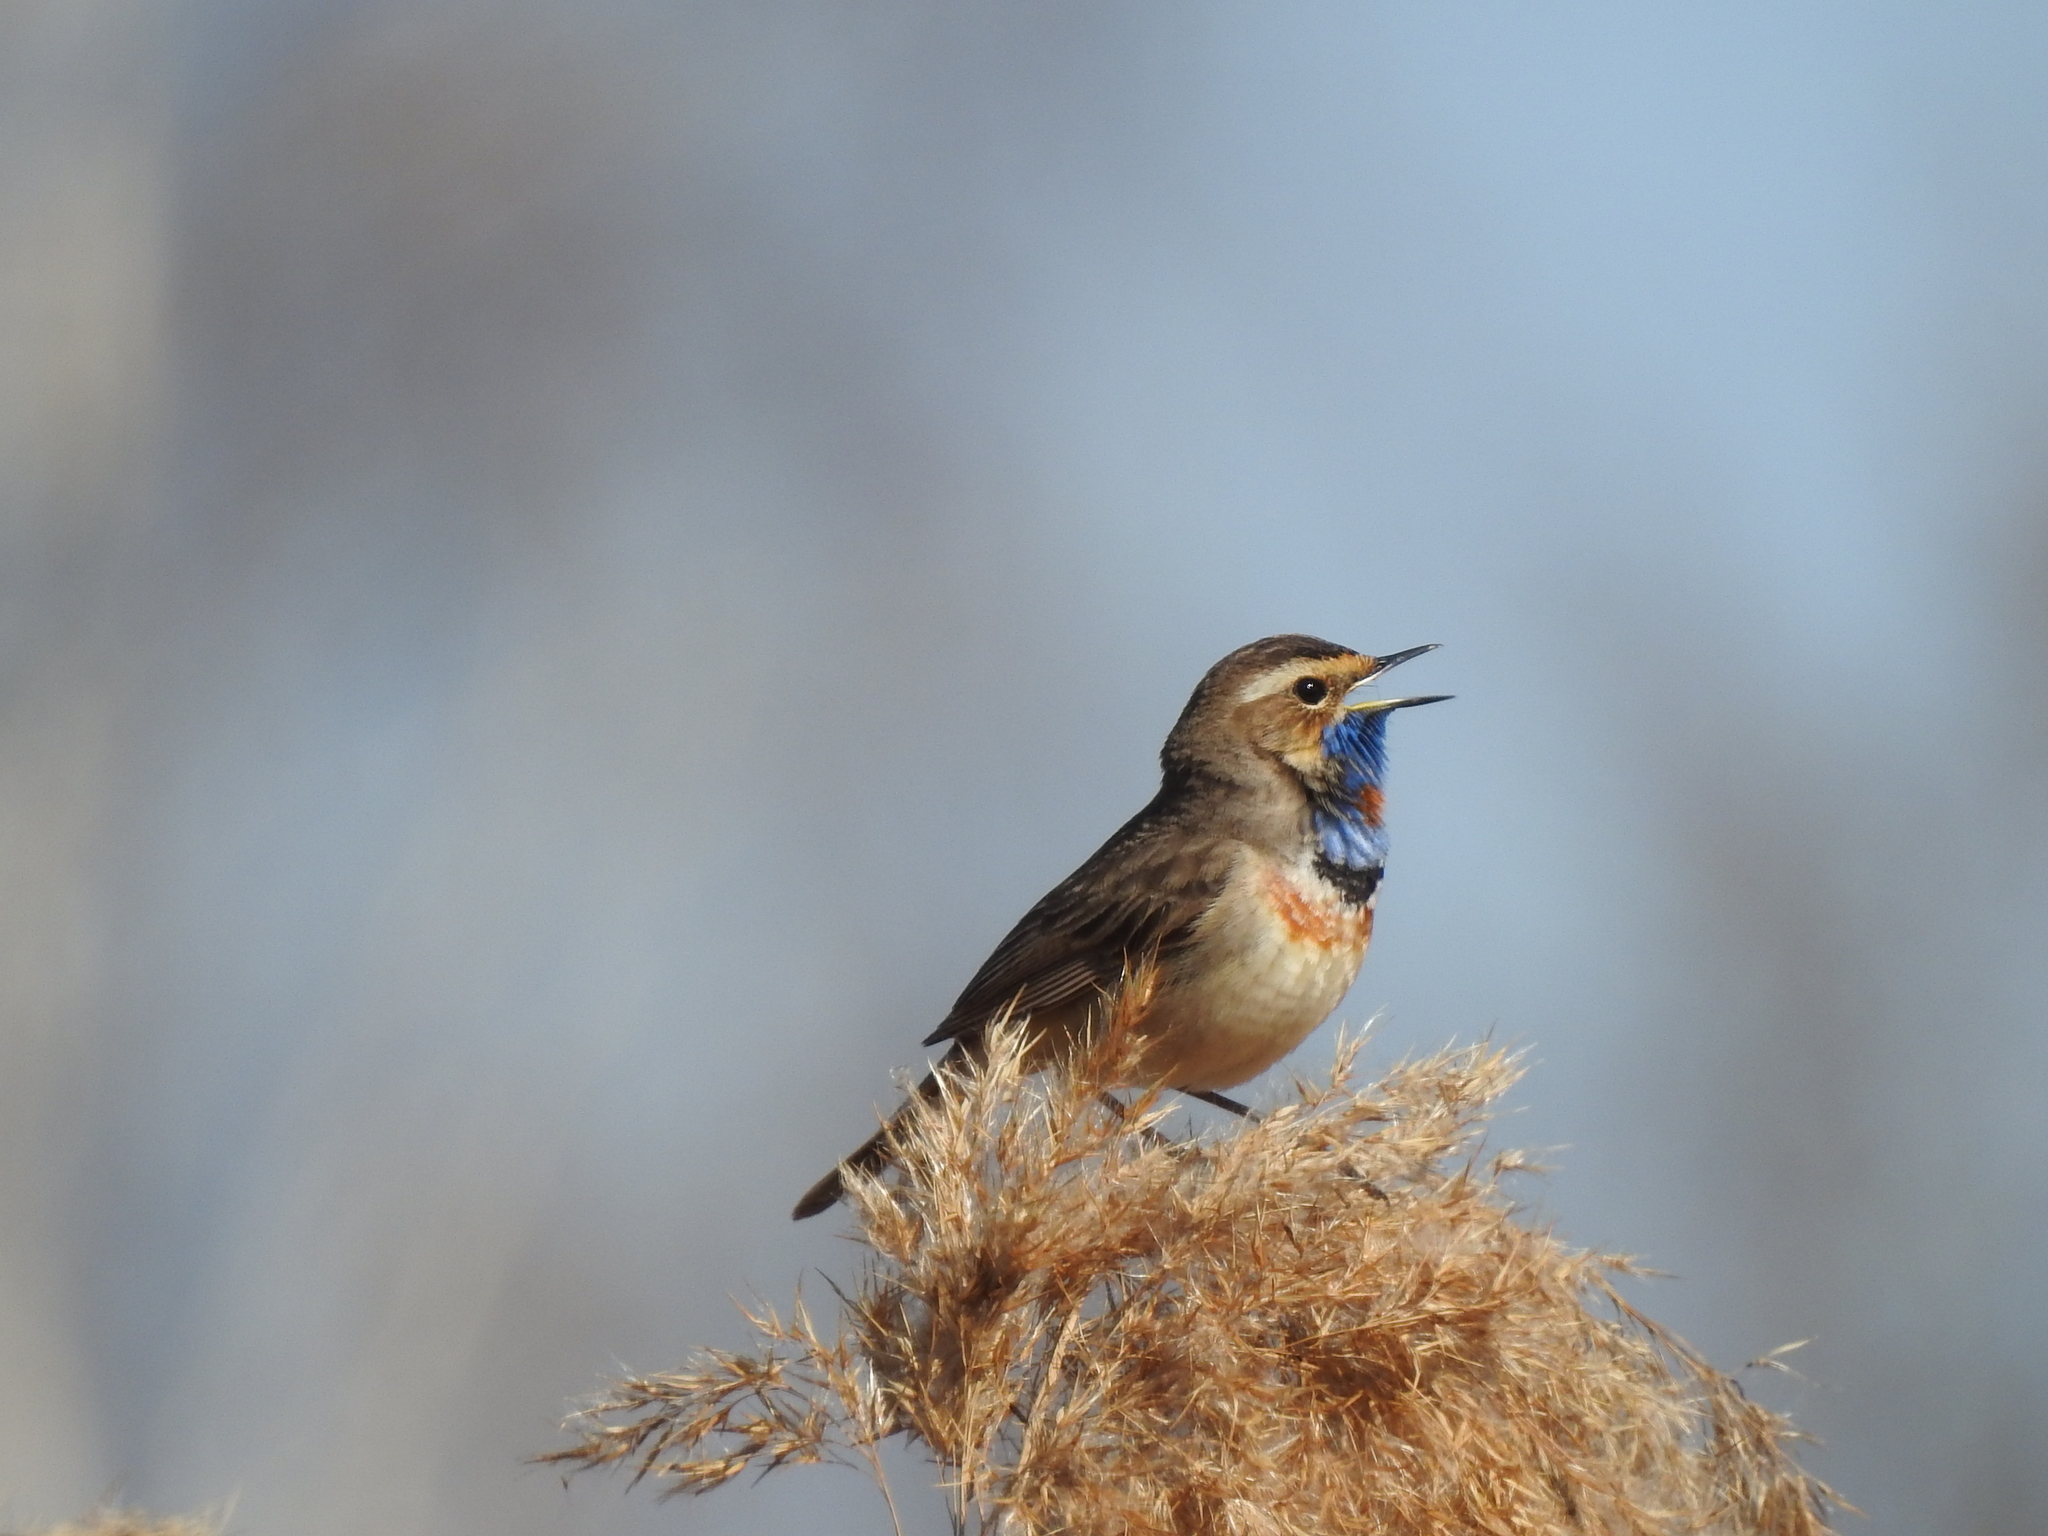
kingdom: Animalia
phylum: Chordata
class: Aves
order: Passeriformes
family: Muscicapidae
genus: Luscinia
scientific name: Luscinia svecica
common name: Bluethroat
